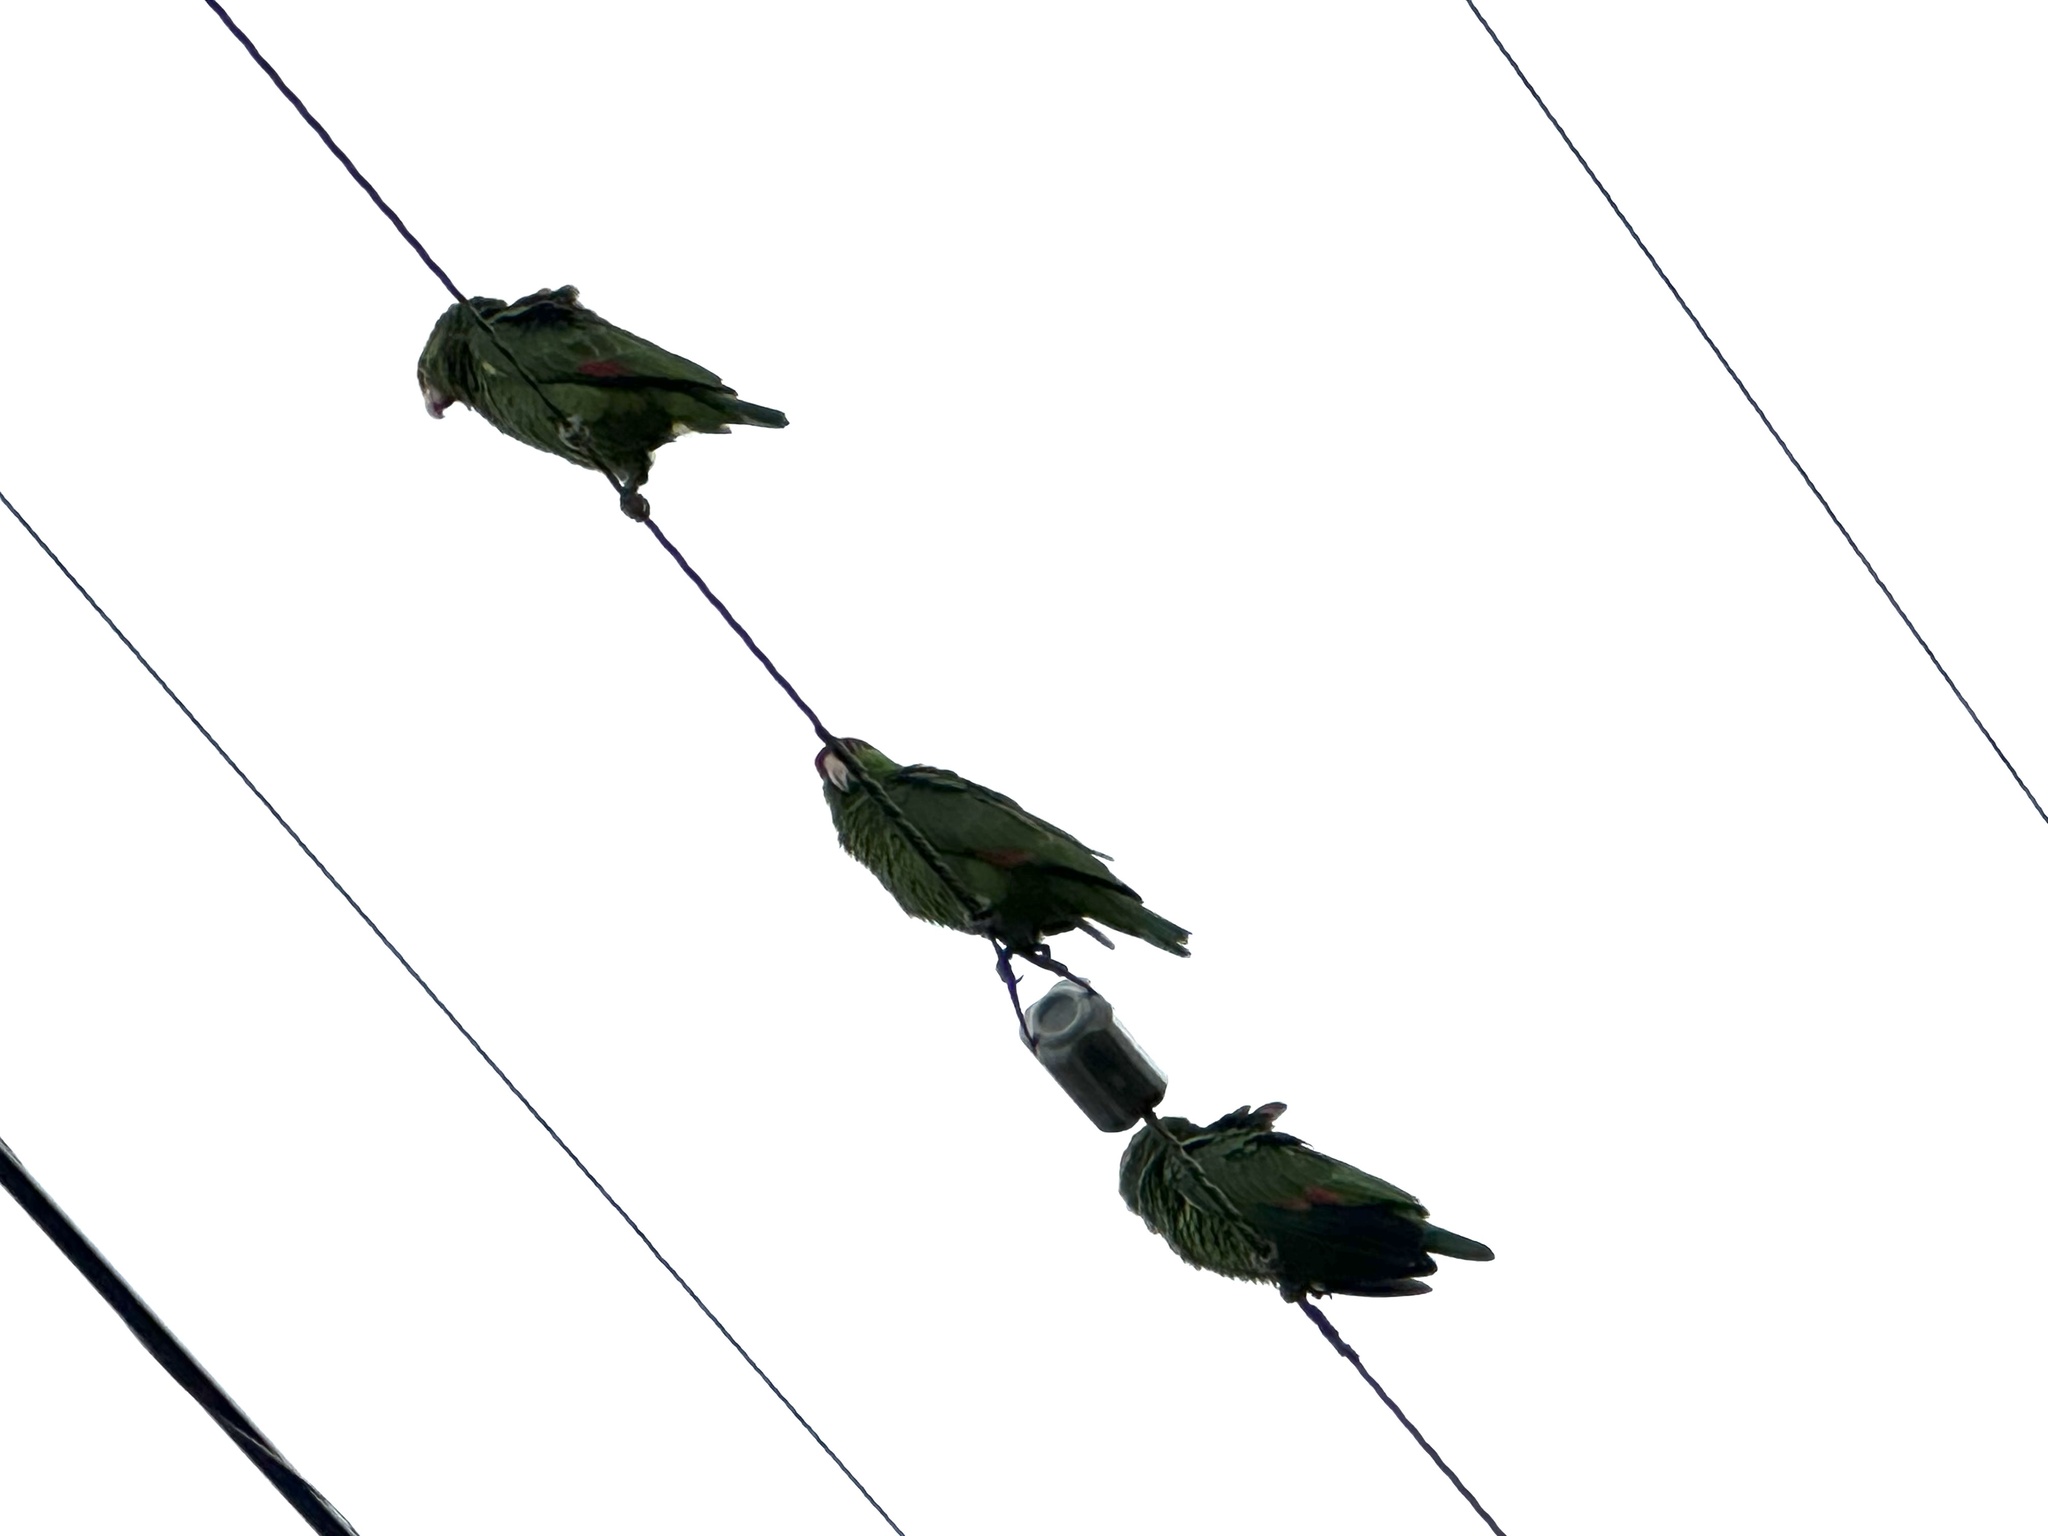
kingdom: Animalia
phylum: Chordata
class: Aves
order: Psittaciformes
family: Psittacidae
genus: Amazona
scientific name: Amazona viridigenalis
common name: Red-crowned amazon
